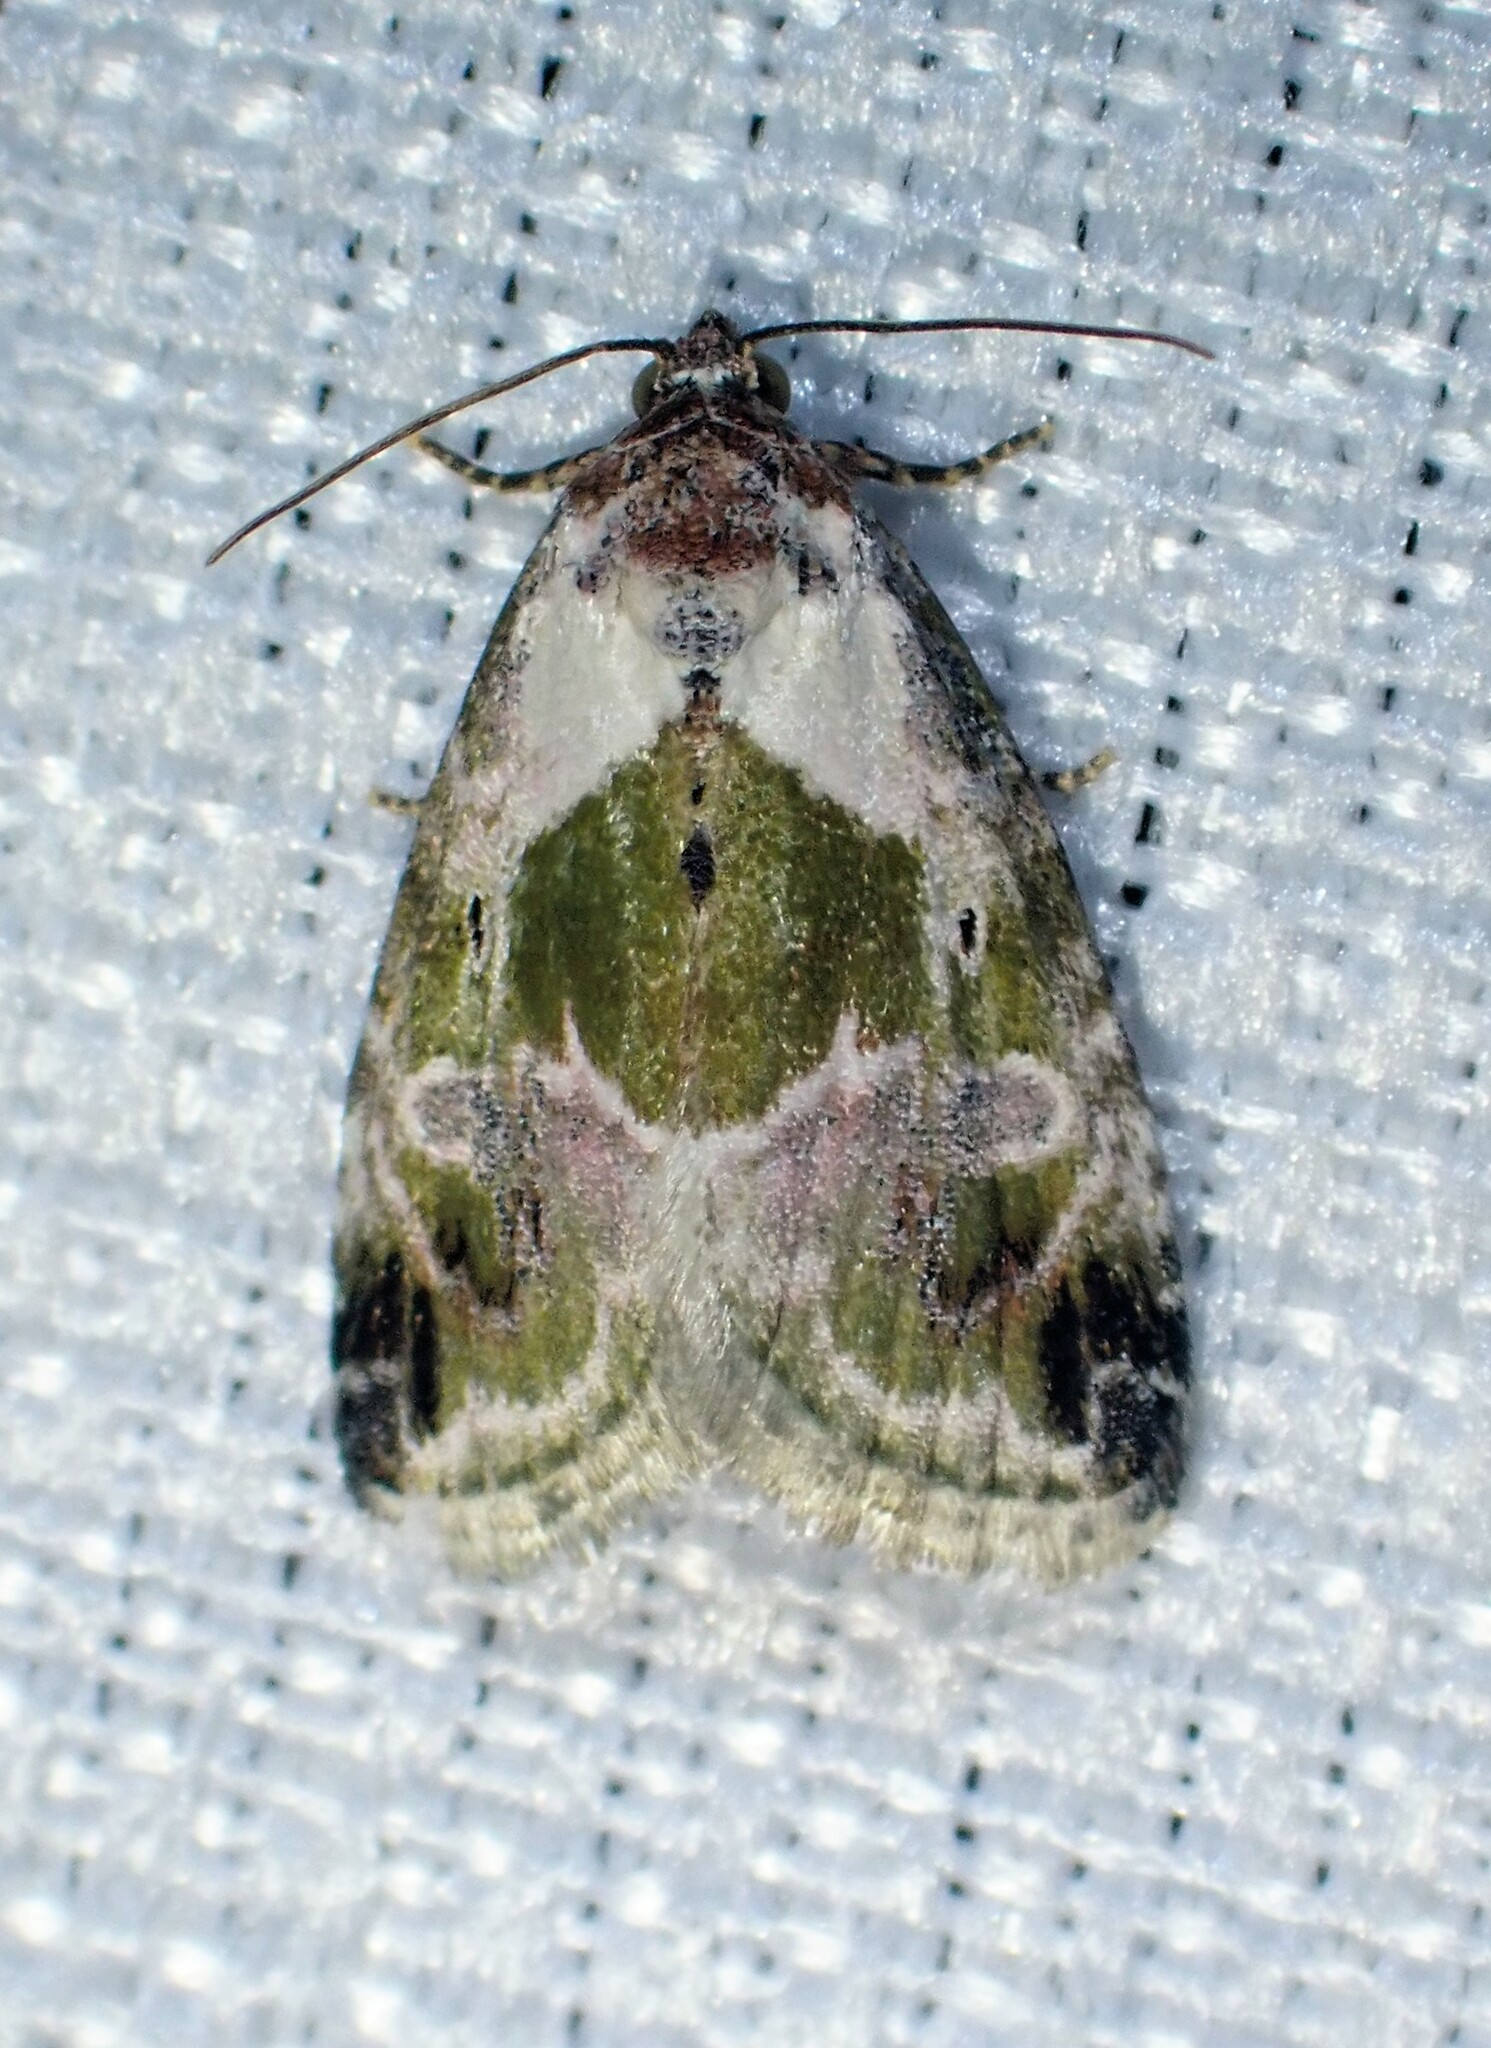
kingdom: Animalia
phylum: Arthropoda
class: Insecta
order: Lepidoptera
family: Noctuidae
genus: Maliattha
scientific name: Maliattha synochitis
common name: Black-dotted glyph
